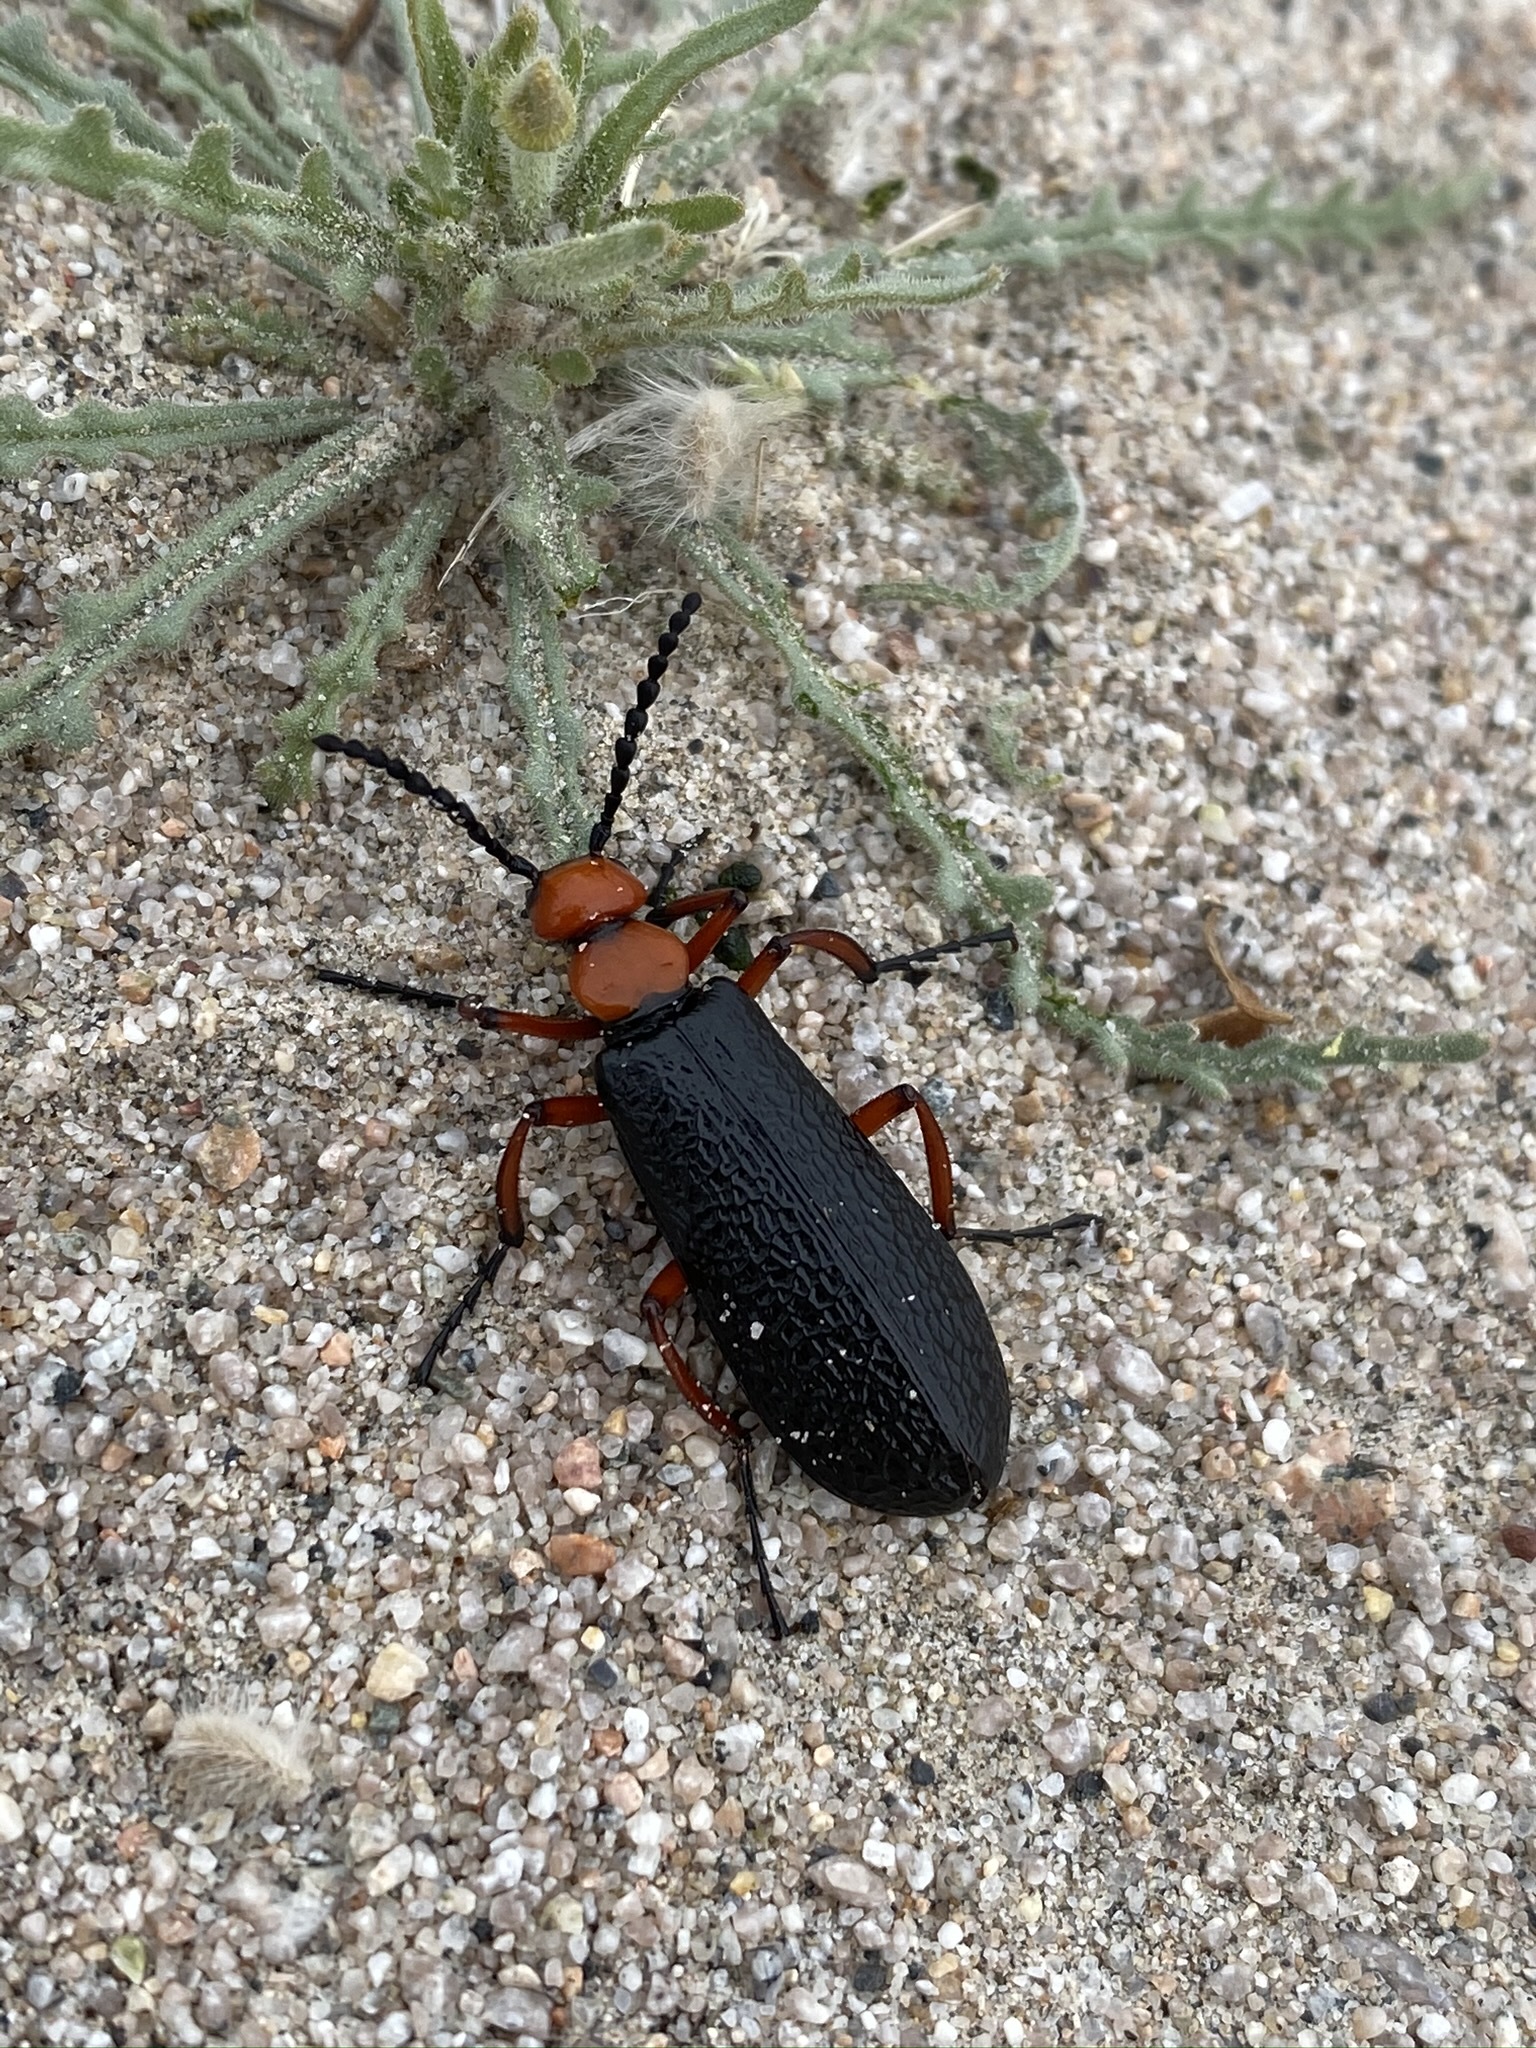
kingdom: Animalia
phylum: Arthropoda
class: Insecta
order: Coleoptera
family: Meloidae
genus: Lytta
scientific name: Lytta magister
